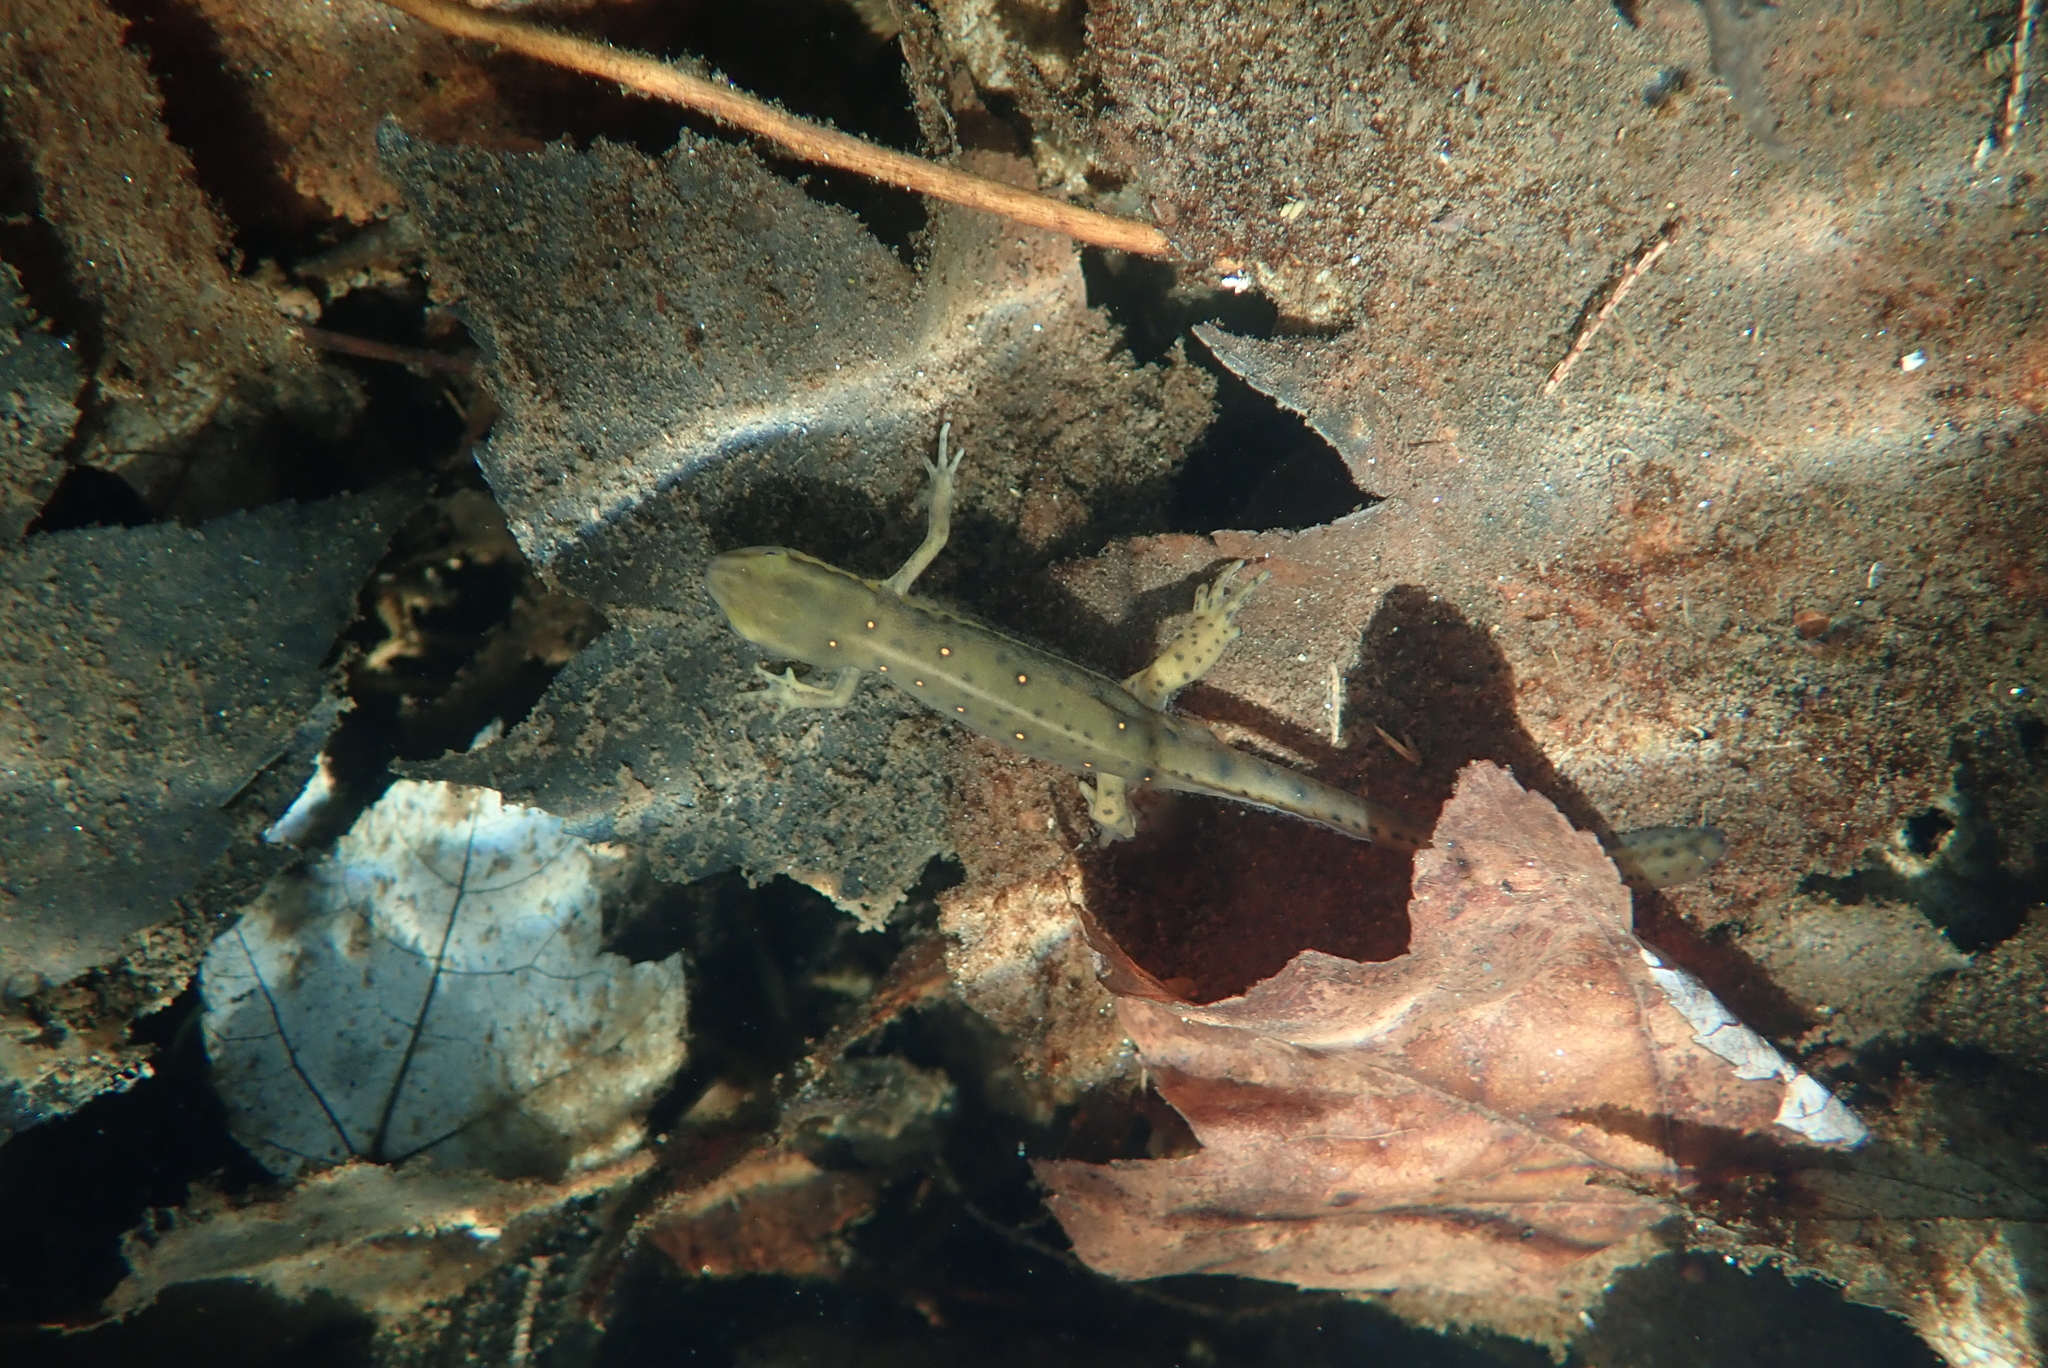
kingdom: Animalia
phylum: Chordata
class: Amphibia
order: Caudata
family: Salamandridae
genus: Notophthalmus
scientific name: Notophthalmus viridescens
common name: Eastern newt
